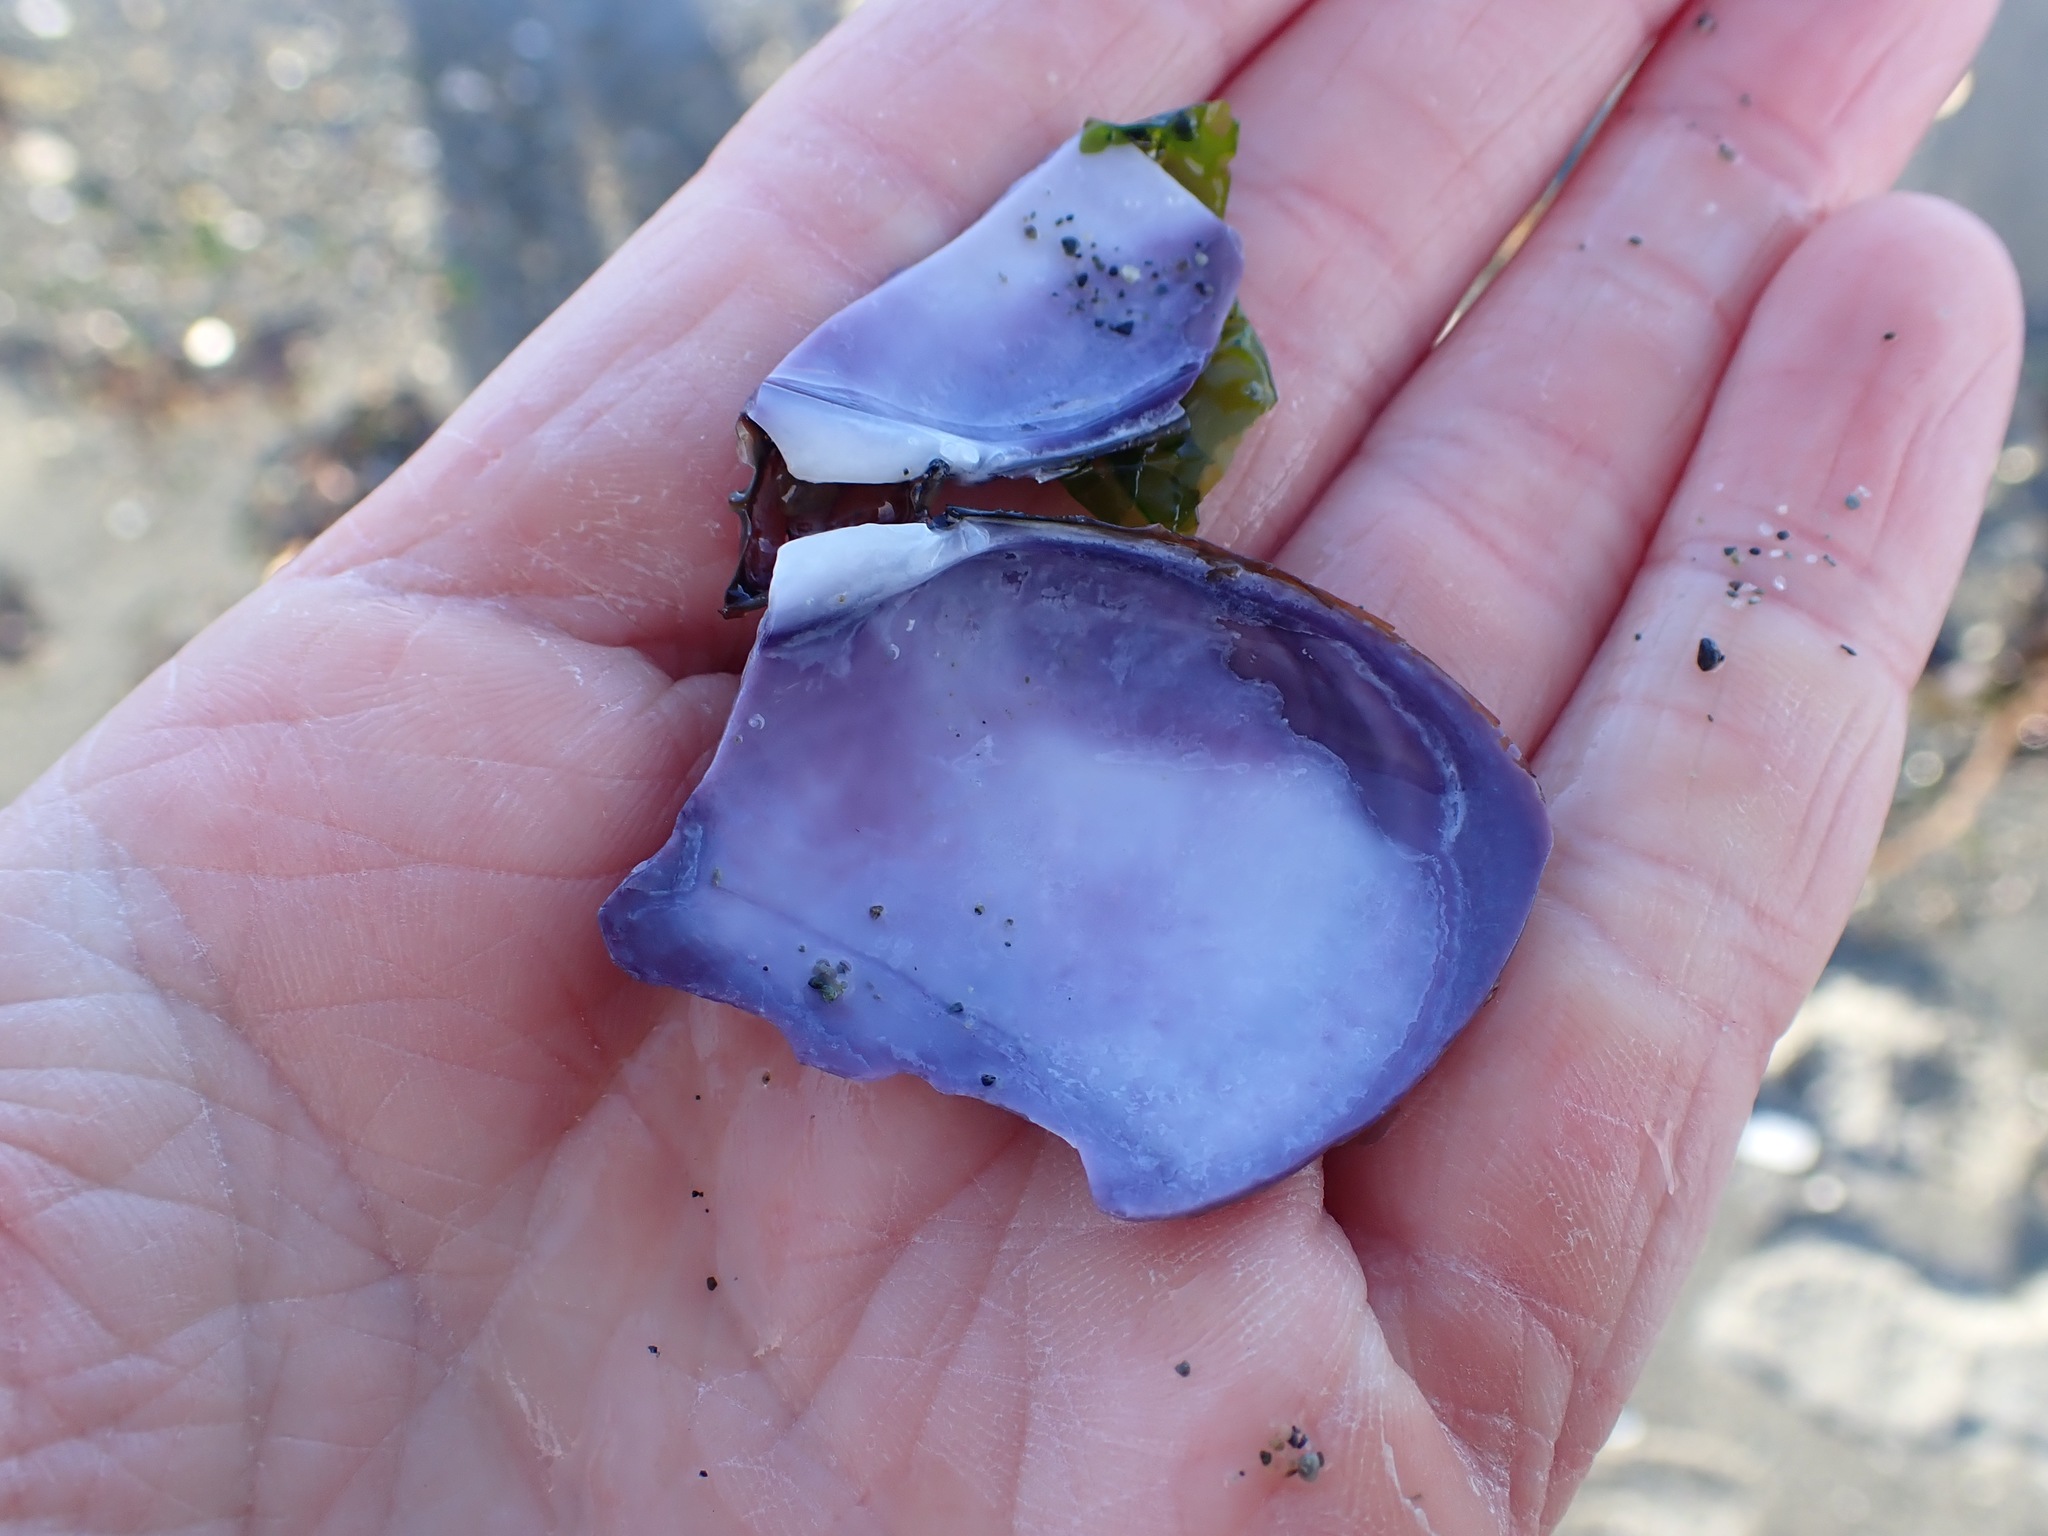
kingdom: Animalia
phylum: Mollusca
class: Bivalvia
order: Cardiida
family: Psammobiidae
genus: Nuttallia
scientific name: Nuttallia obscurata
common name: Purple mahogany-clam
